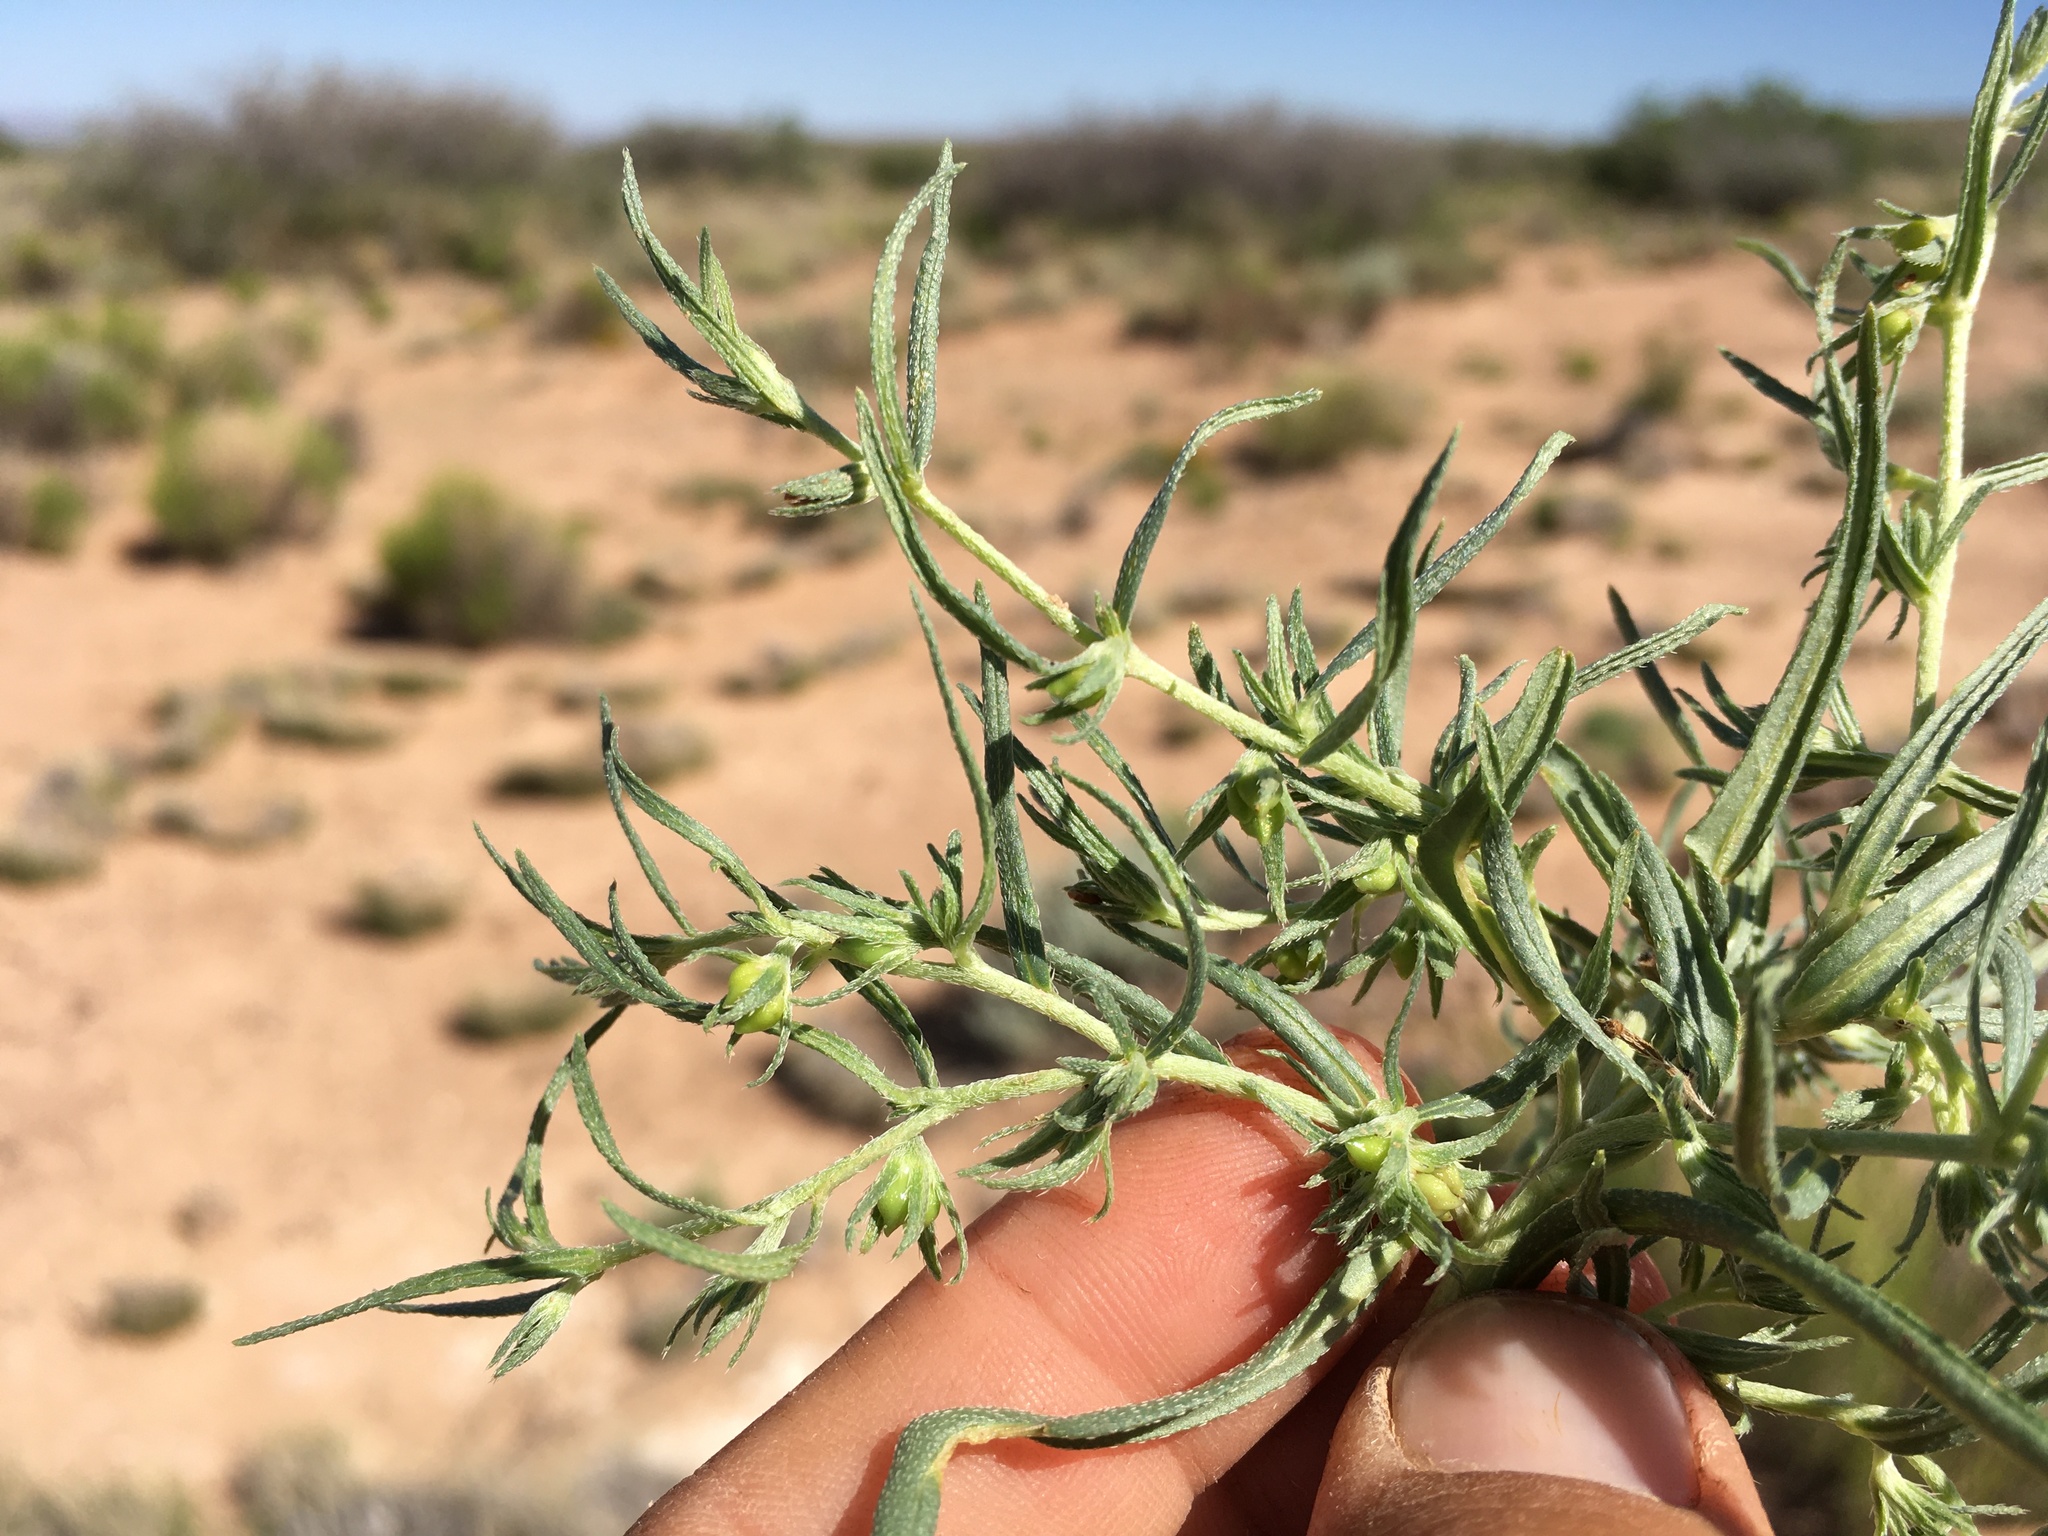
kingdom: Plantae
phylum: Tracheophyta
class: Magnoliopsida
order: Boraginales
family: Boraginaceae
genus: Lithospermum
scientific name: Lithospermum incisum
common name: Fringed gromwell
